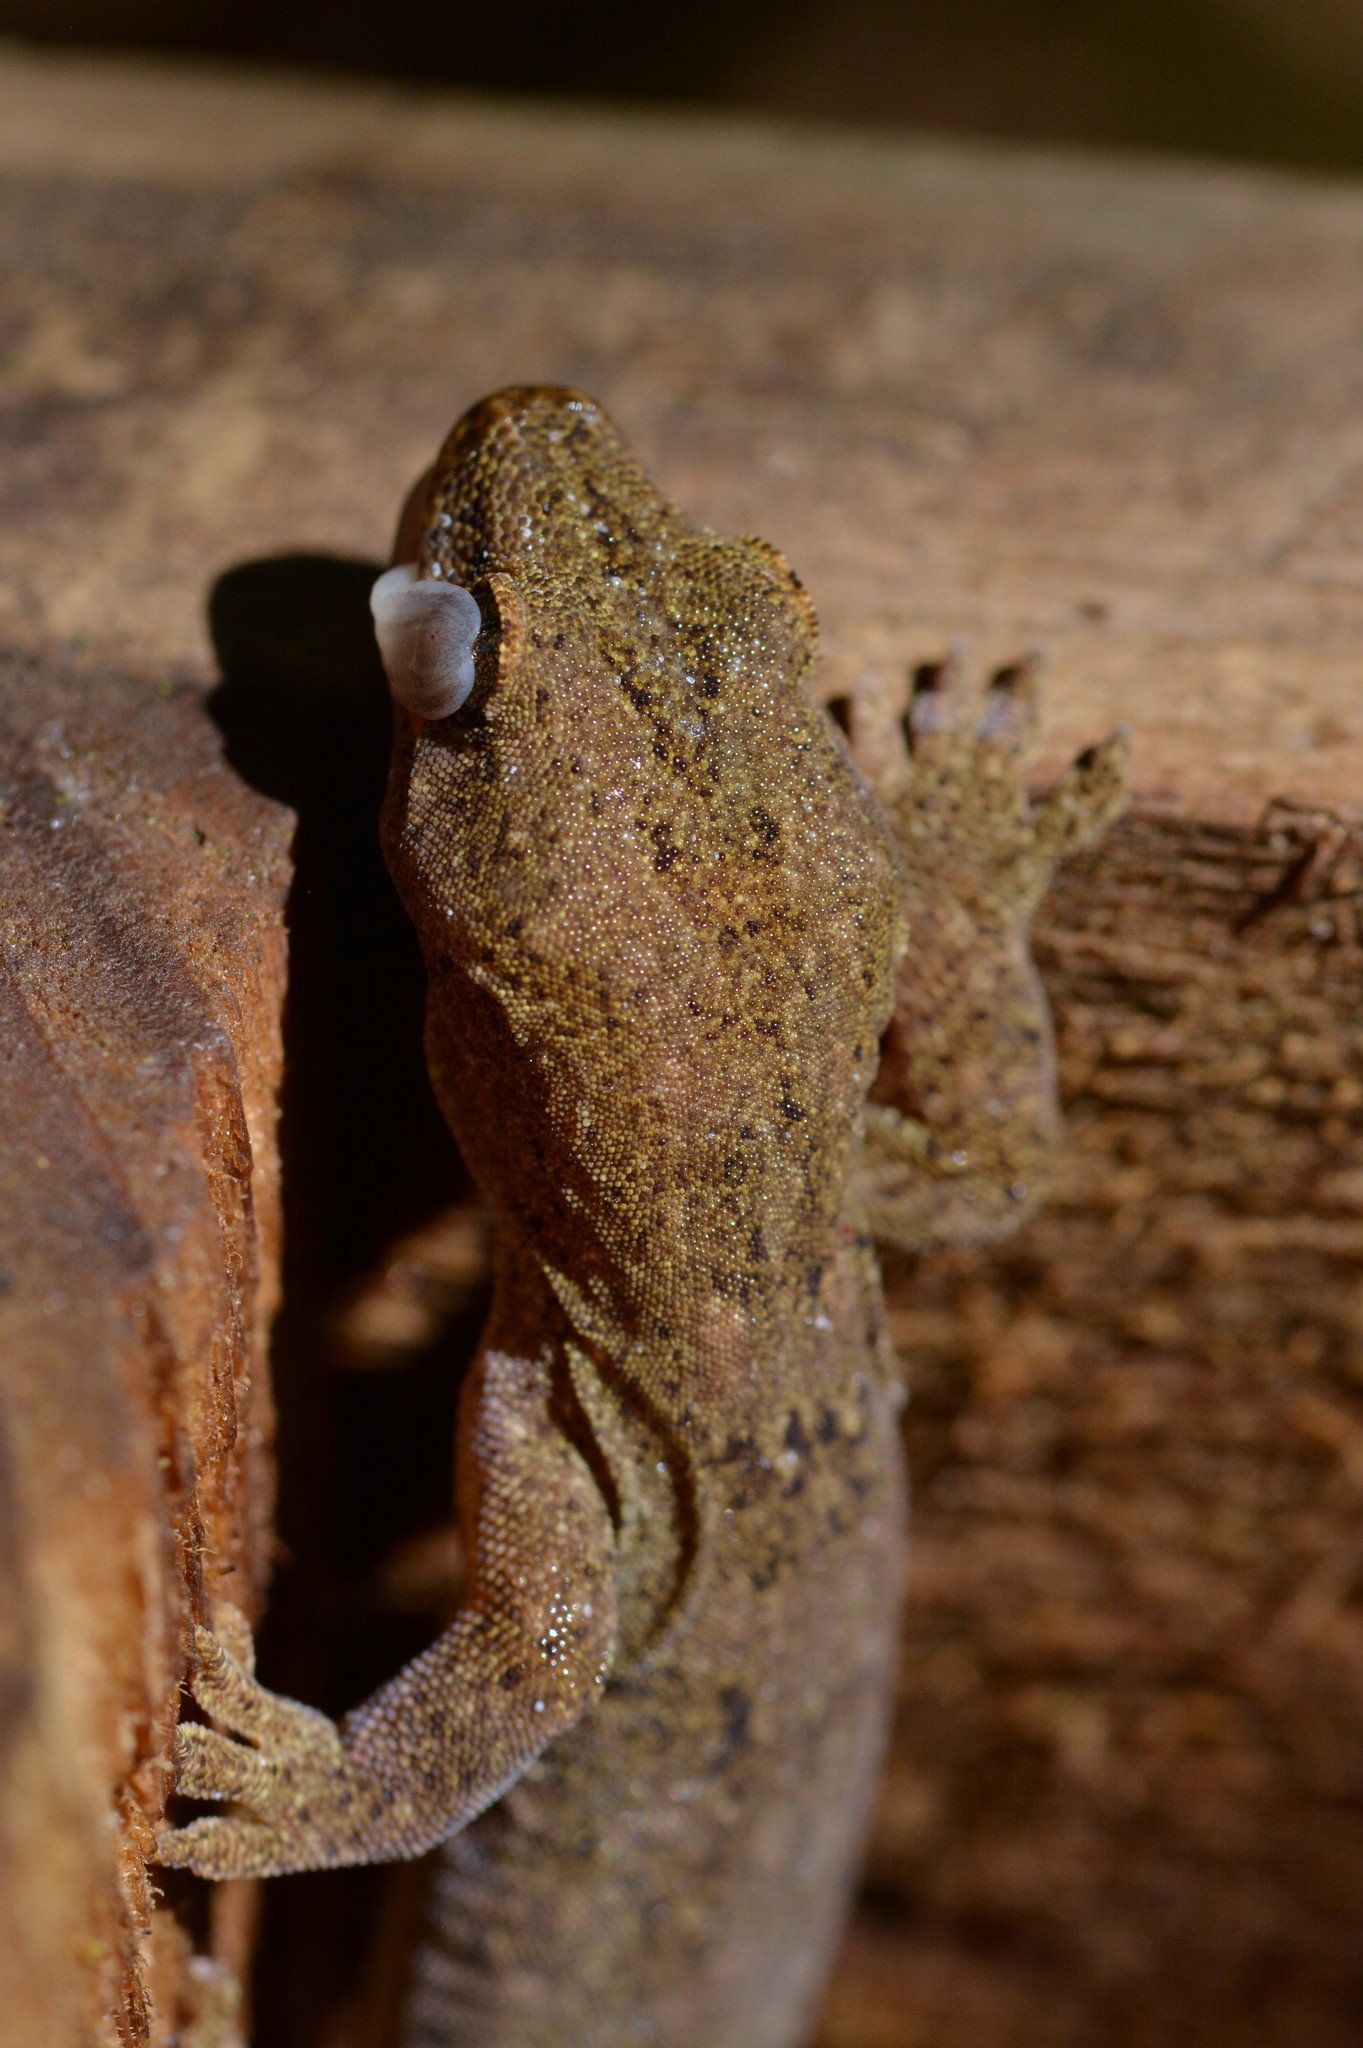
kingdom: Animalia
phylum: Chordata
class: Squamata
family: Diplodactylidae
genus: Woodworthia
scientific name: Woodworthia maculata
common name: Raukawa gecko
